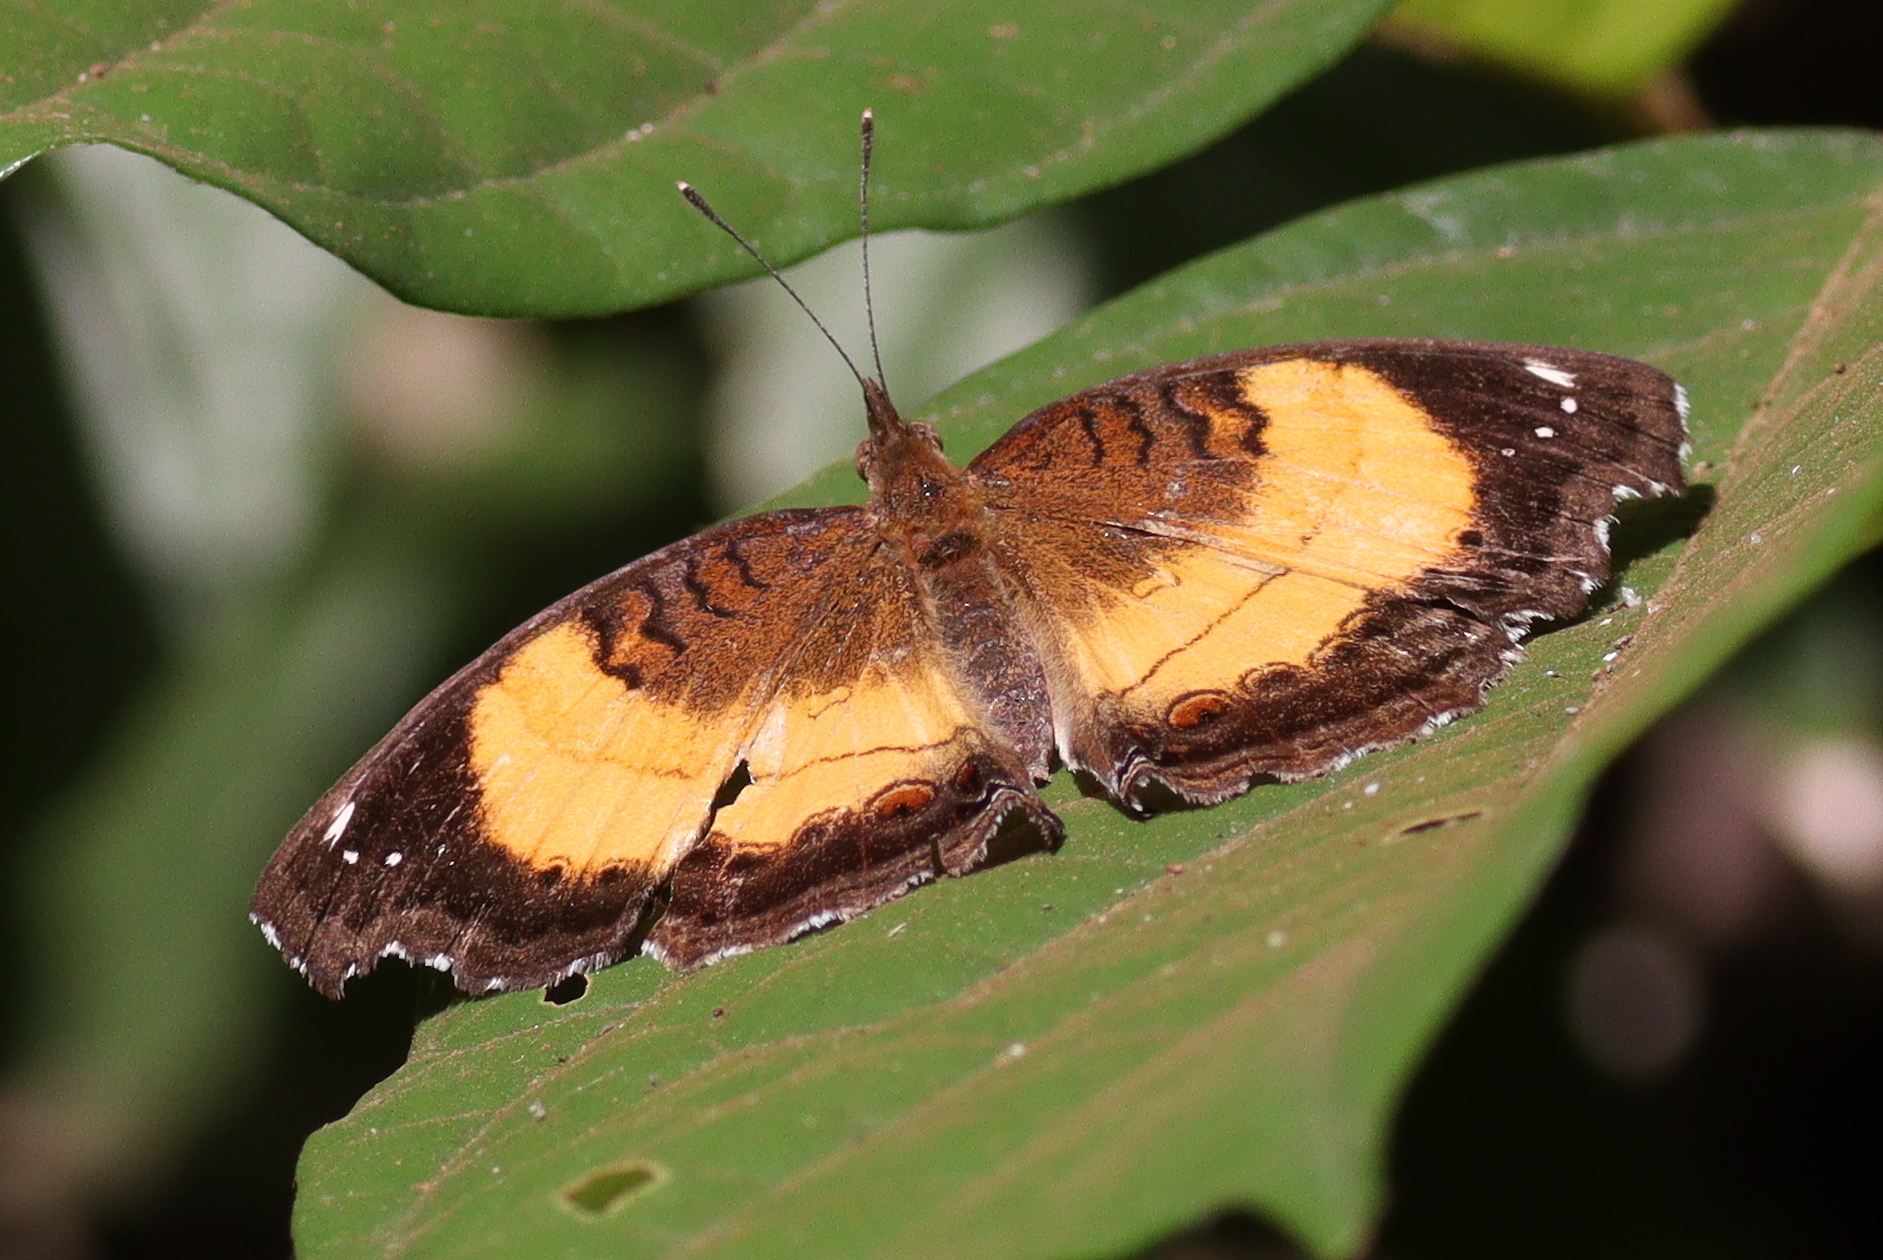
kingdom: Animalia
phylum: Arthropoda
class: Insecta
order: Lepidoptera
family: Nymphalidae
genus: Junonia
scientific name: Junonia terea
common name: Soldier pansy
